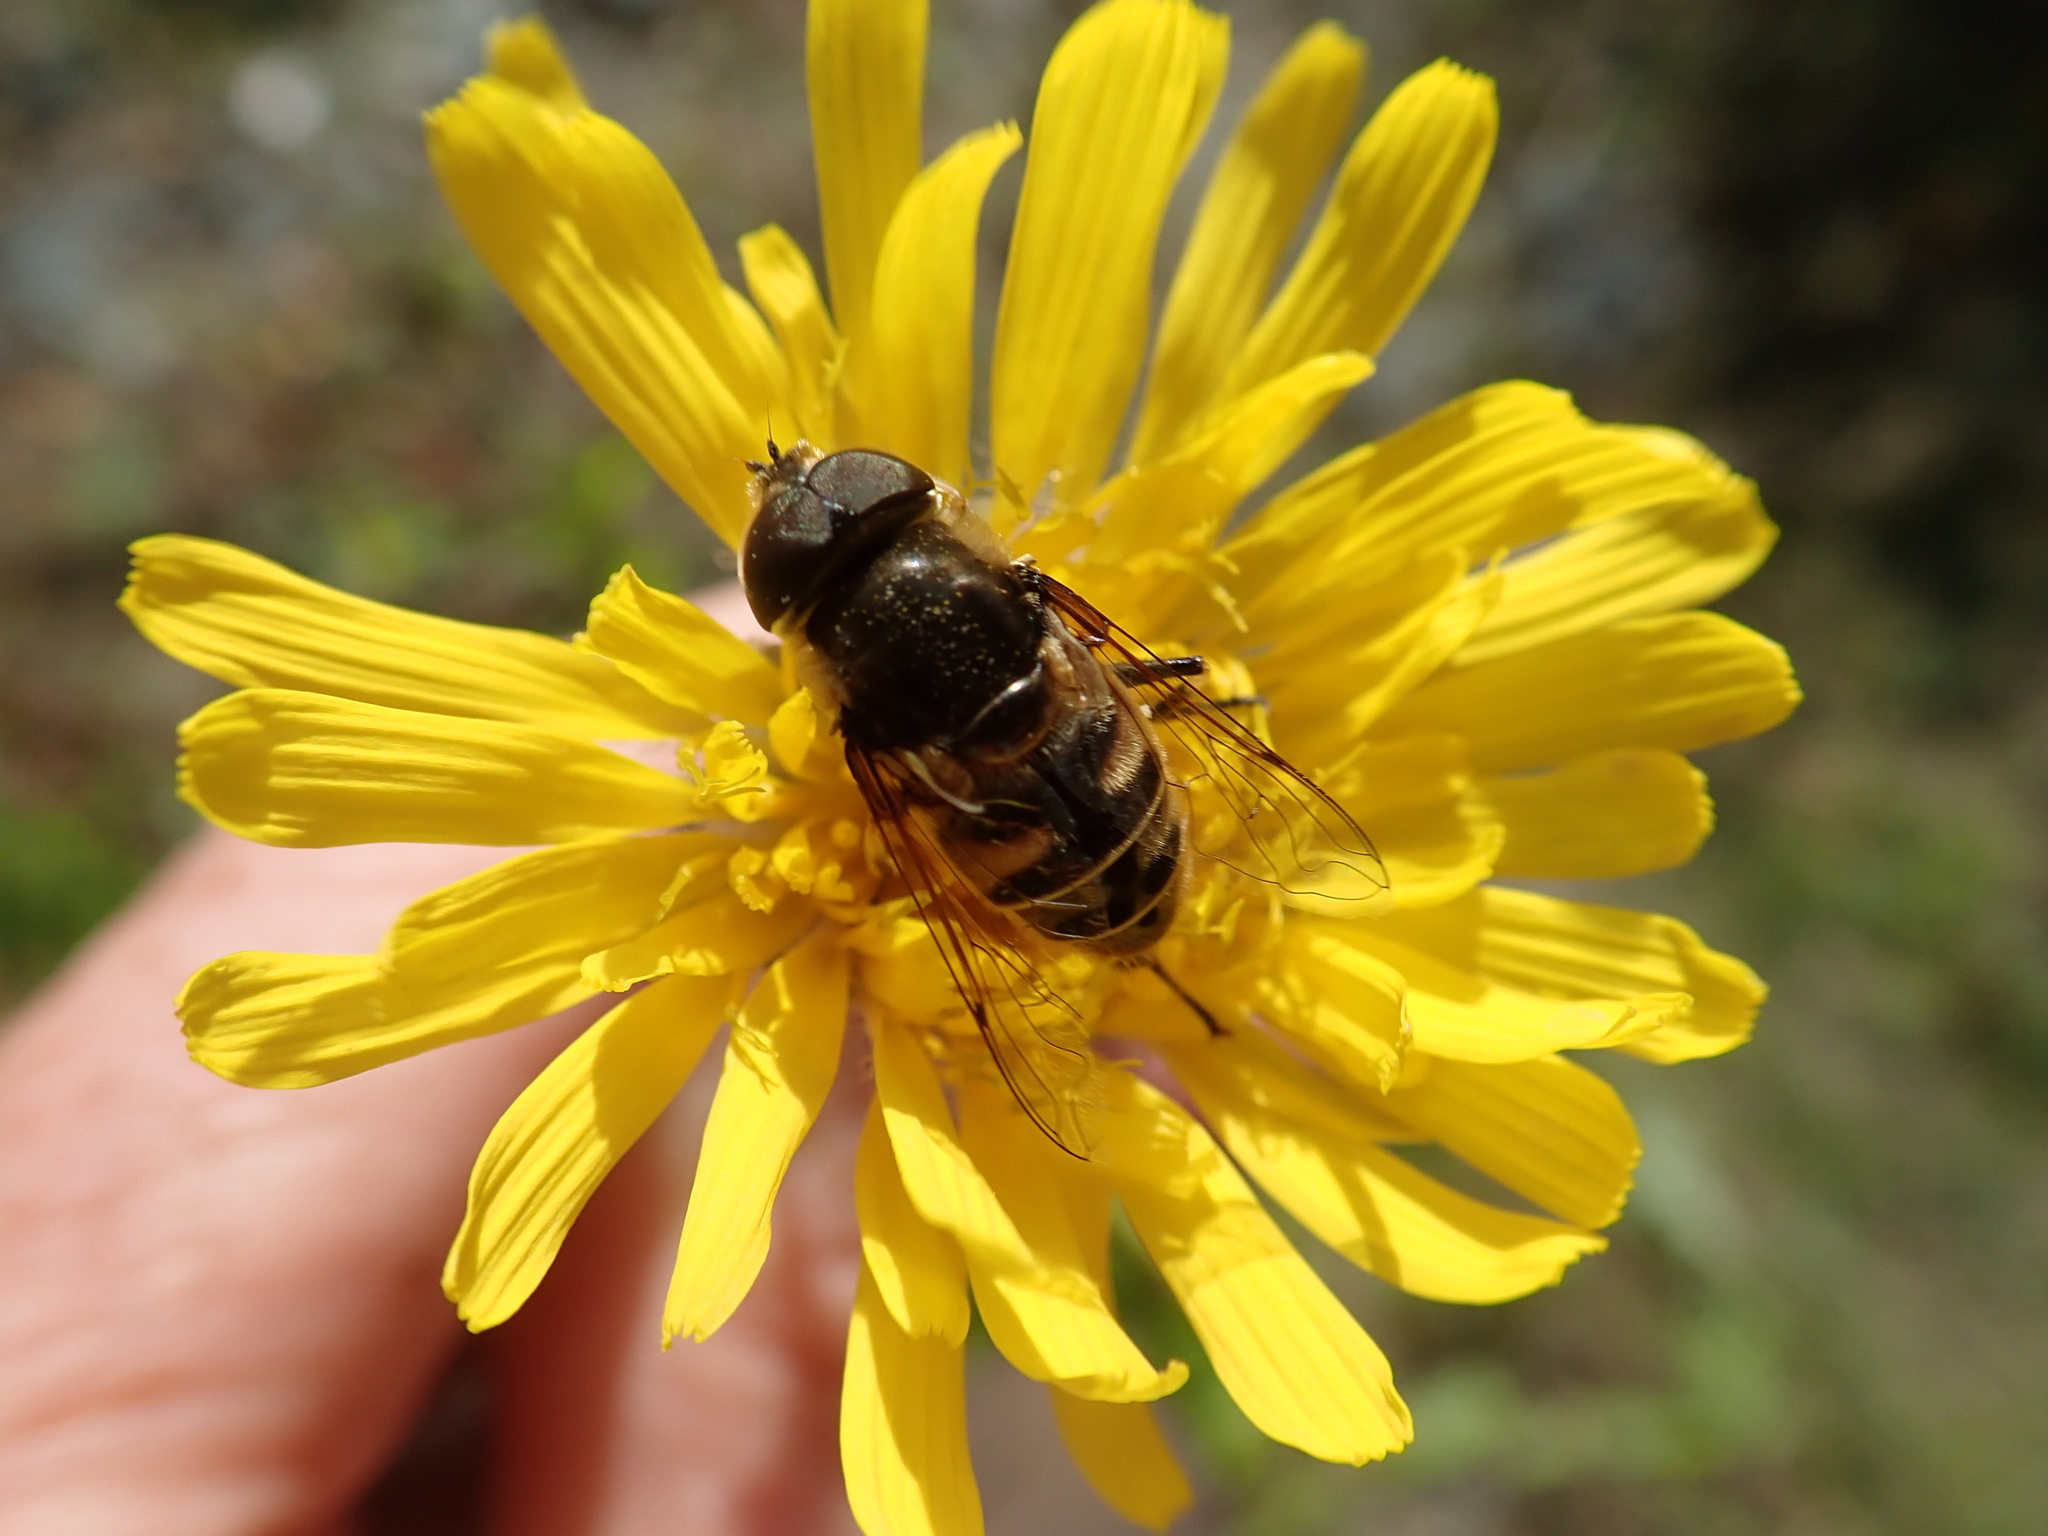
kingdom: Animalia
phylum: Arthropoda
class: Insecta
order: Diptera
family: Syrphidae
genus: Eristalis
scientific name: Eristalis dimidiata
